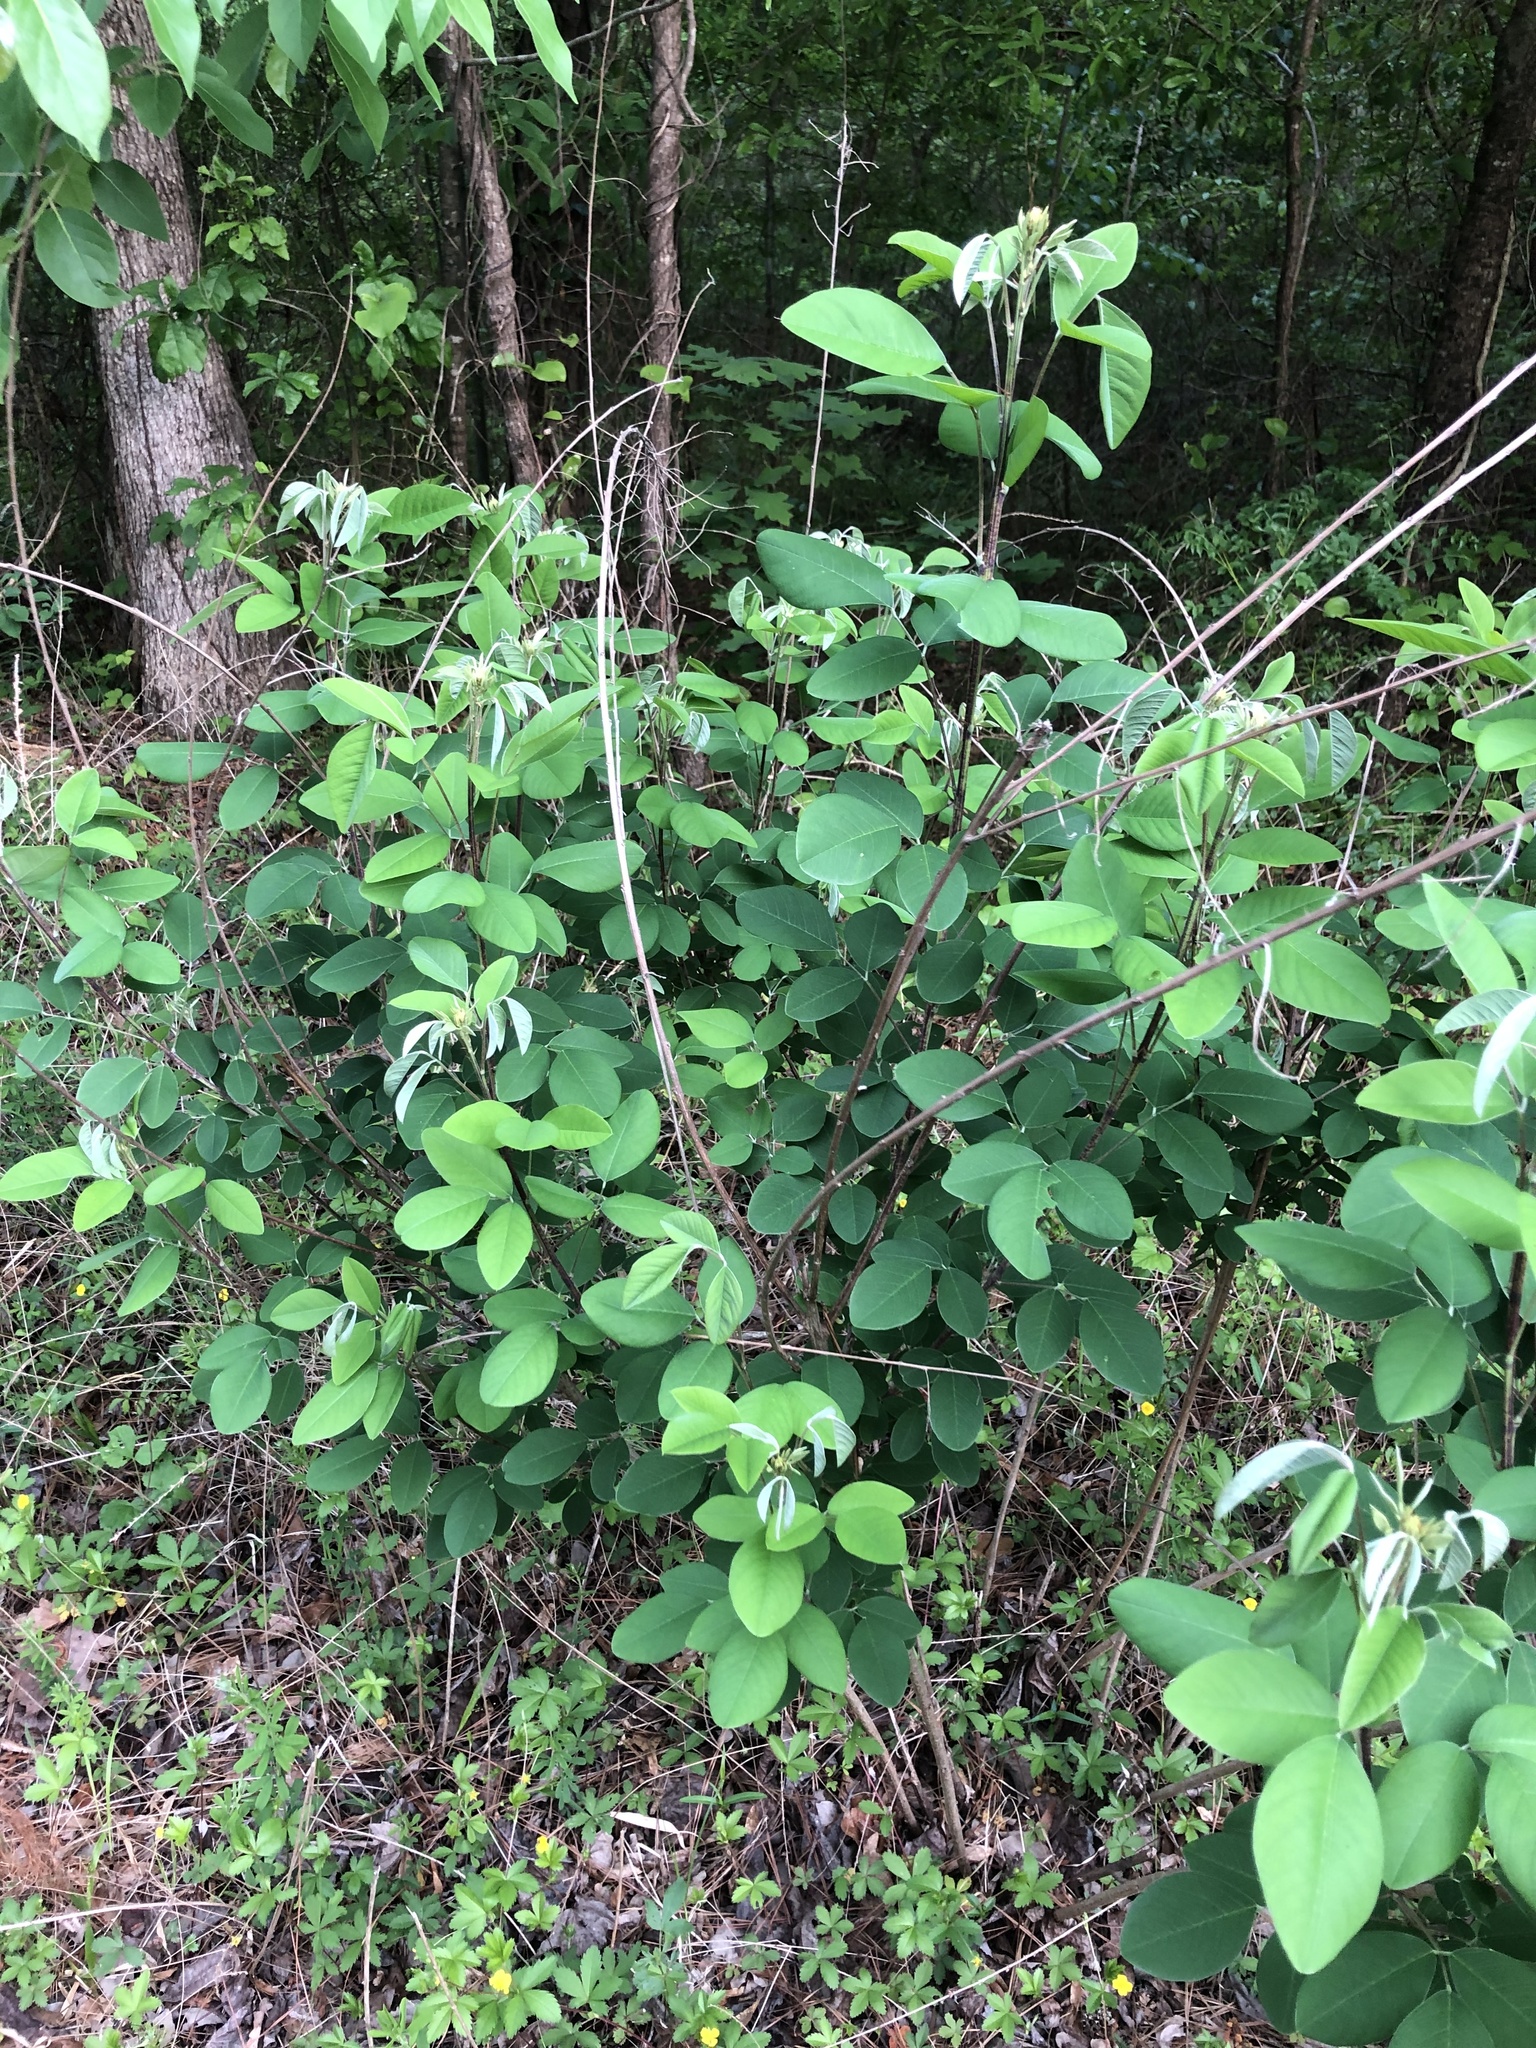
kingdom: Plantae
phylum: Tracheophyta
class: Magnoliopsida
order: Fabales
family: Fabaceae
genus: Lespedeza
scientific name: Lespedeza bicolor
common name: Shrub lespedeza
